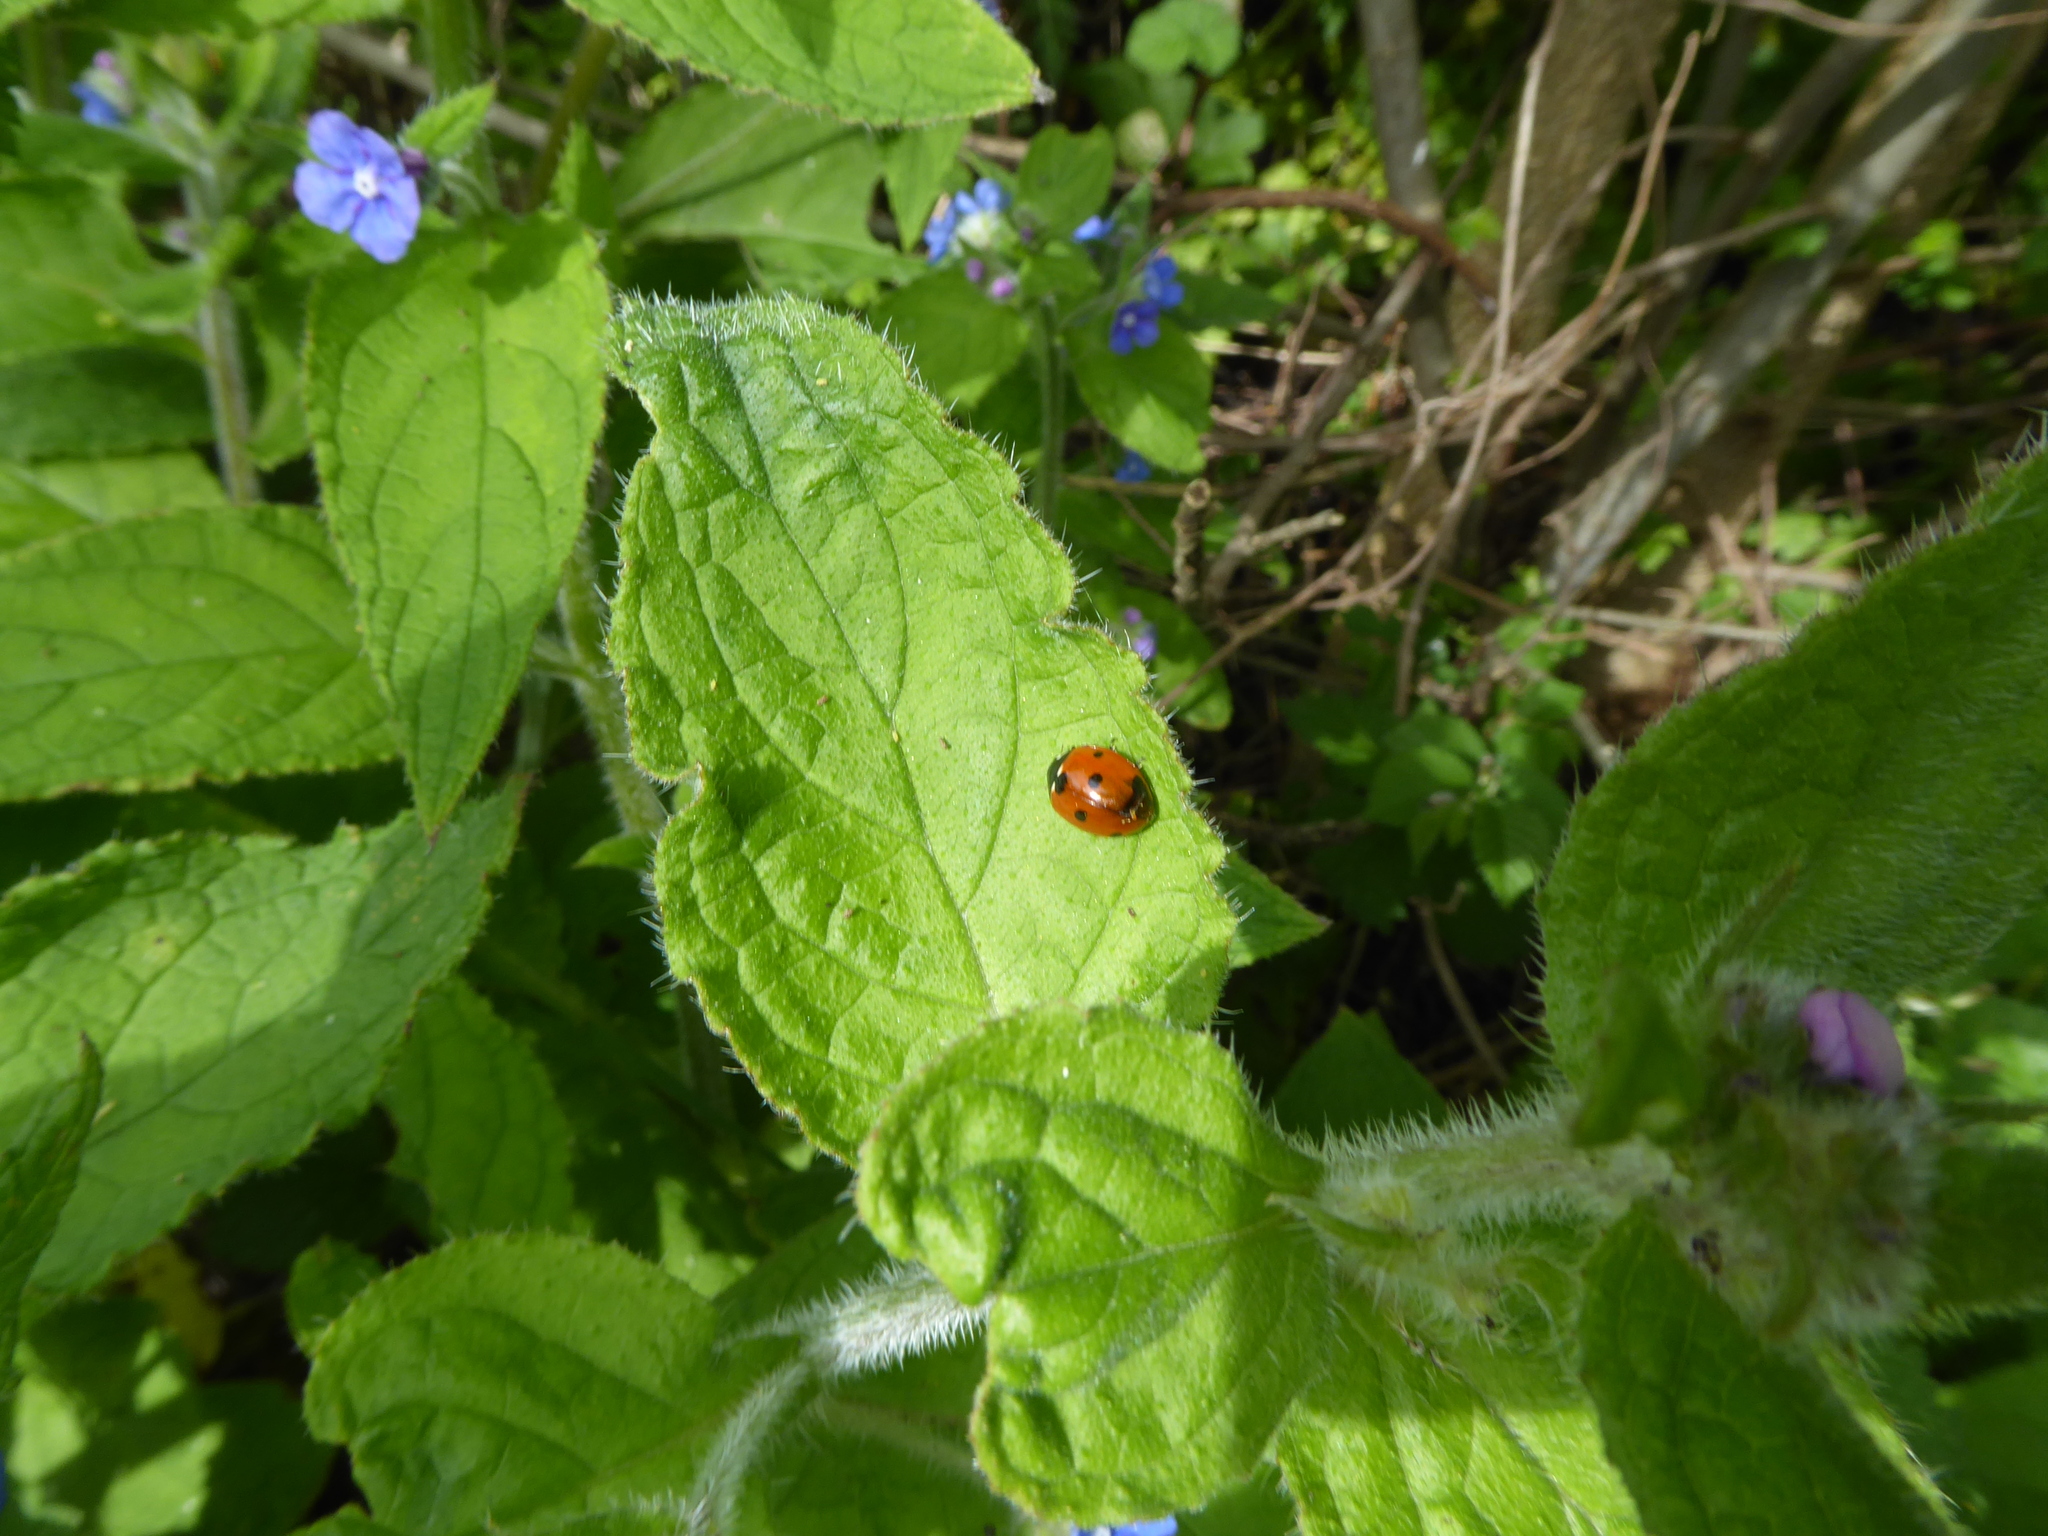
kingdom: Animalia
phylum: Arthropoda
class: Insecta
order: Coleoptera
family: Coccinellidae
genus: Coccinella
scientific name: Coccinella septempunctata
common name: Sevenspotted lady beetle
